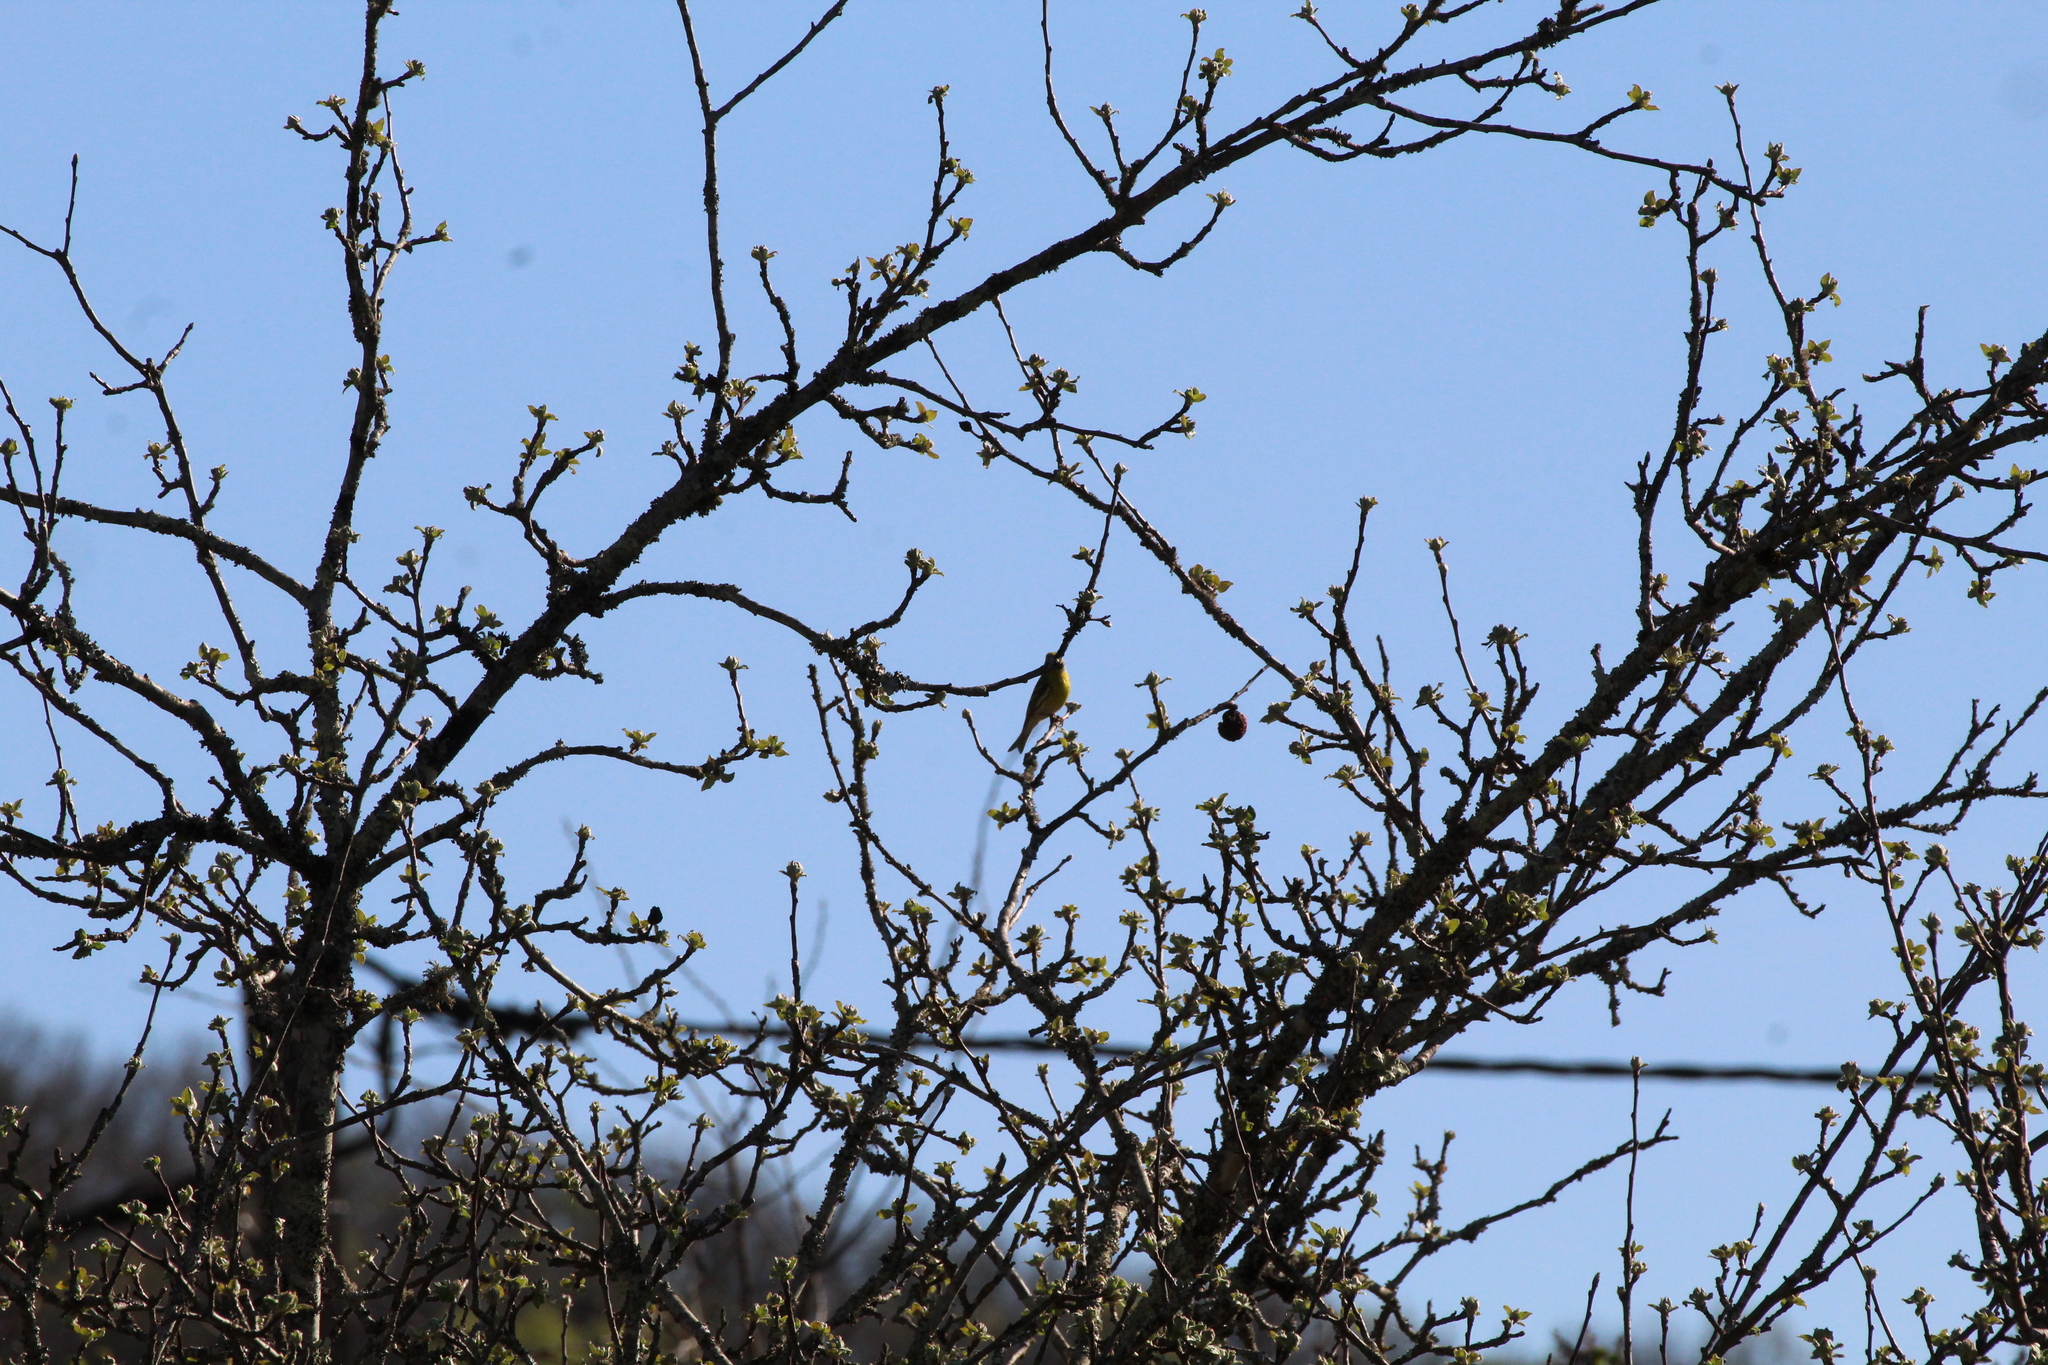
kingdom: Animalia
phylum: Chordata
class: Aves
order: Passeriformes
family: Fringillidae
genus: Serinus
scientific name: Serinus serinus
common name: European serin
